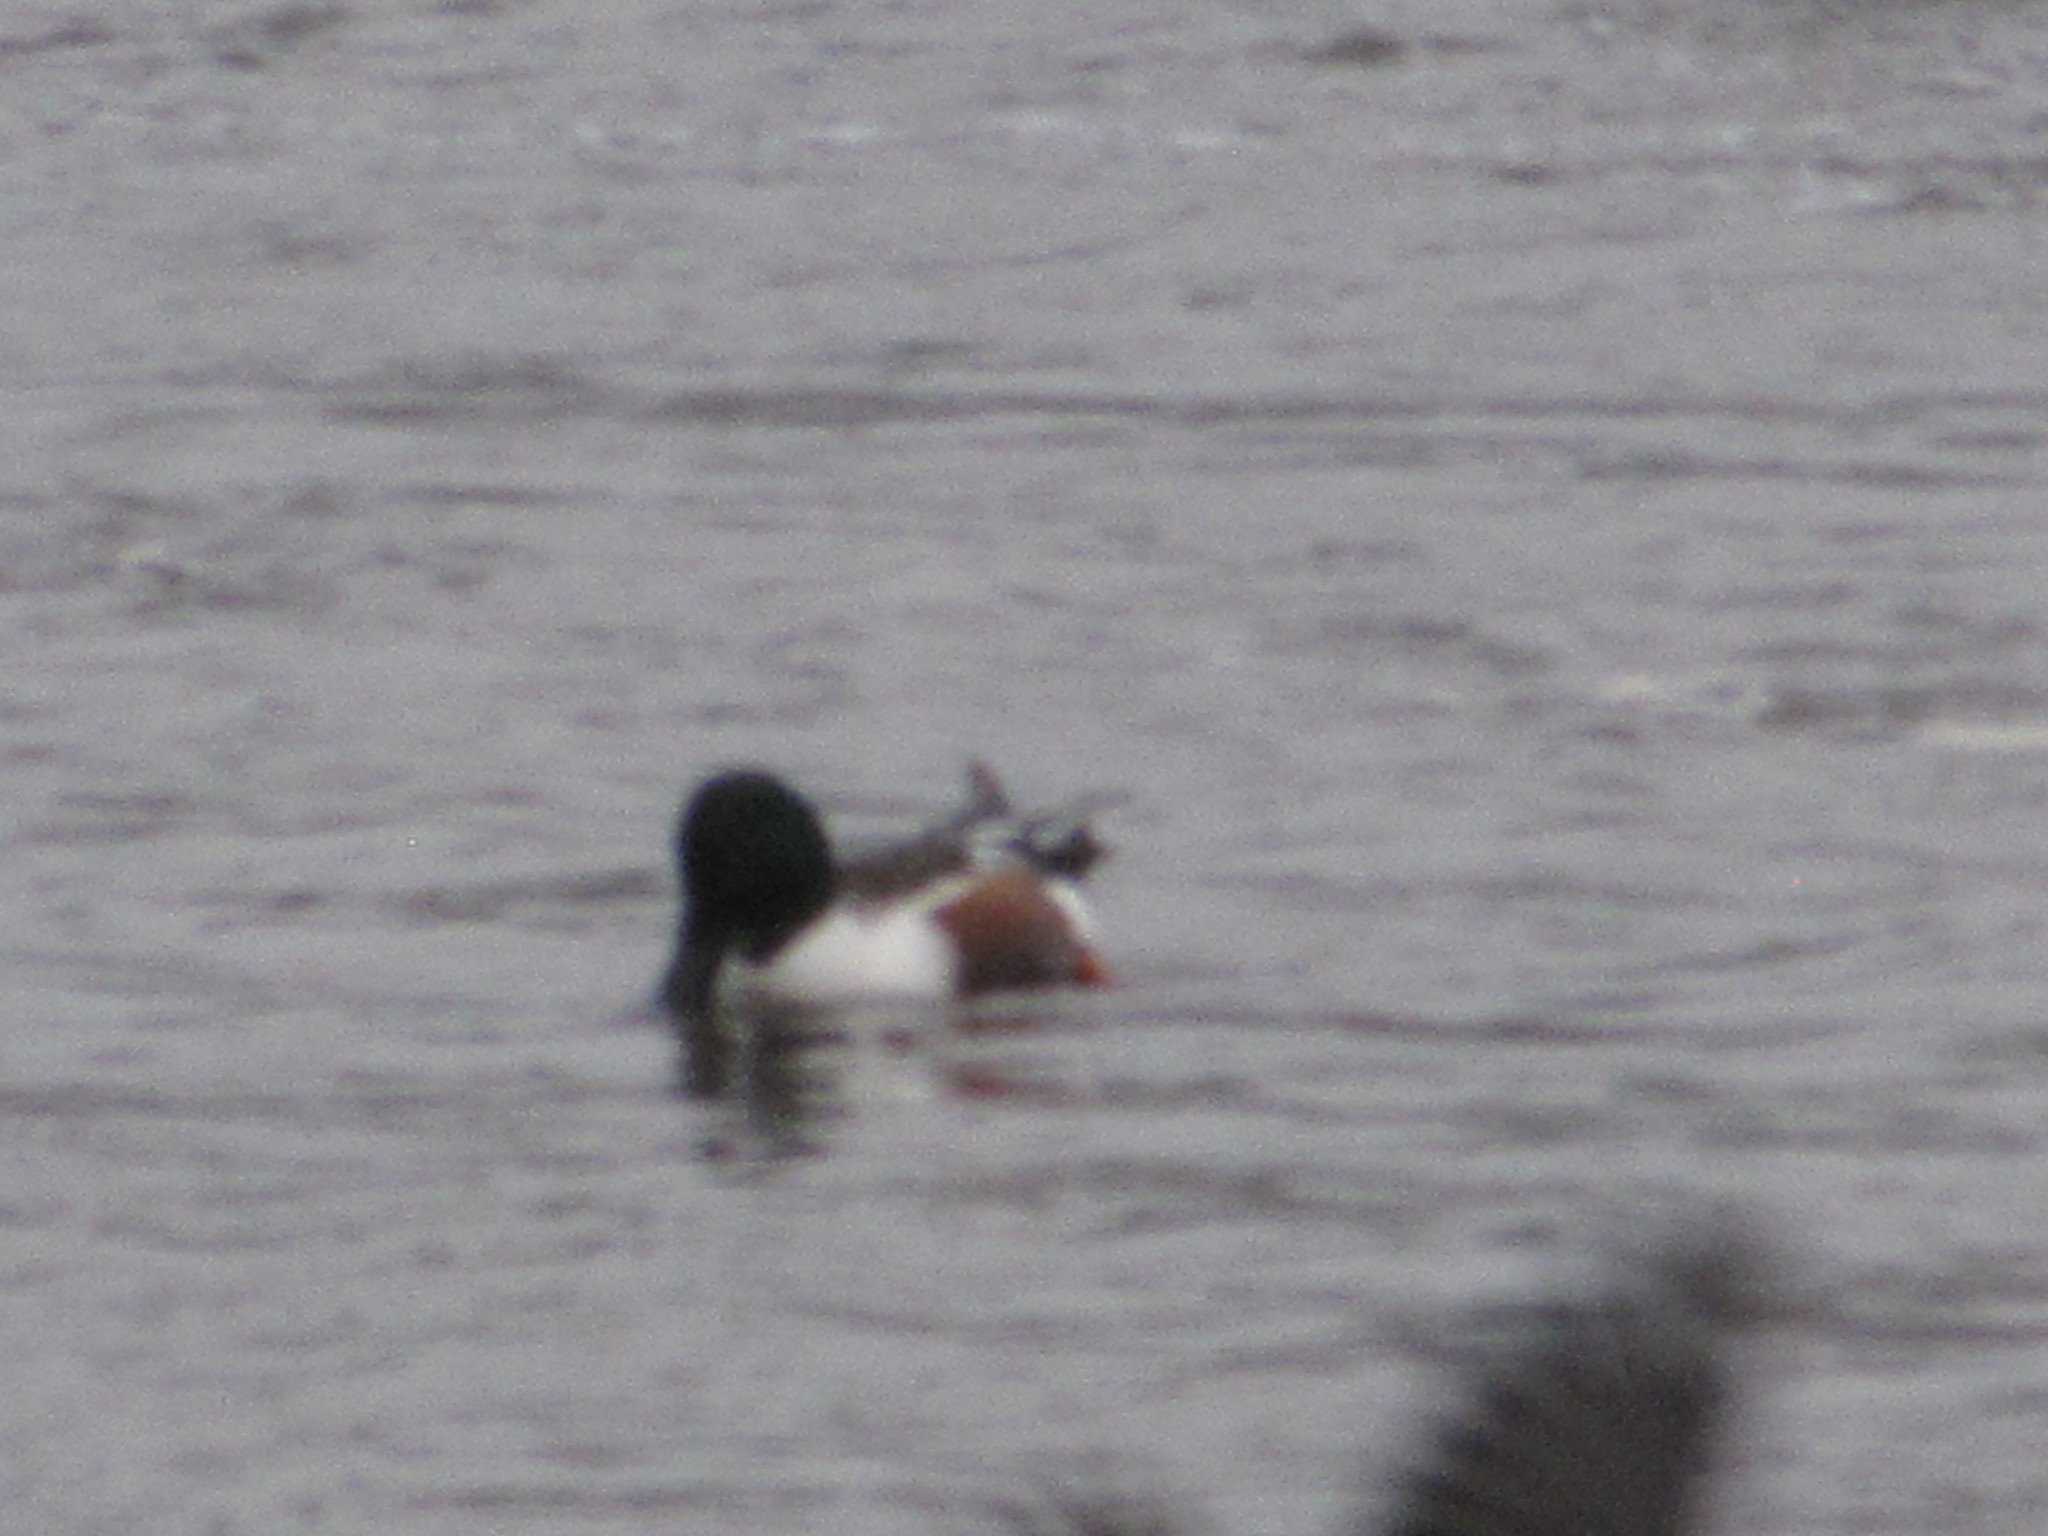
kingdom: Animalia
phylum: Chordata
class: Aves
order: Anseriformes
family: Anatidae
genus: Spatula
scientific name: Spatula clypeata
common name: Northern shoveler
